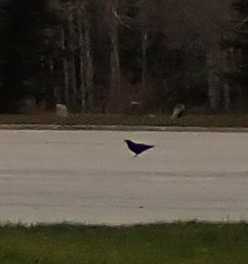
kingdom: Animalia
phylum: Chordata
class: Aves
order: Passeriformes
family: Corvidae
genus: Corvus
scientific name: Corvus corax
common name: Common raven
